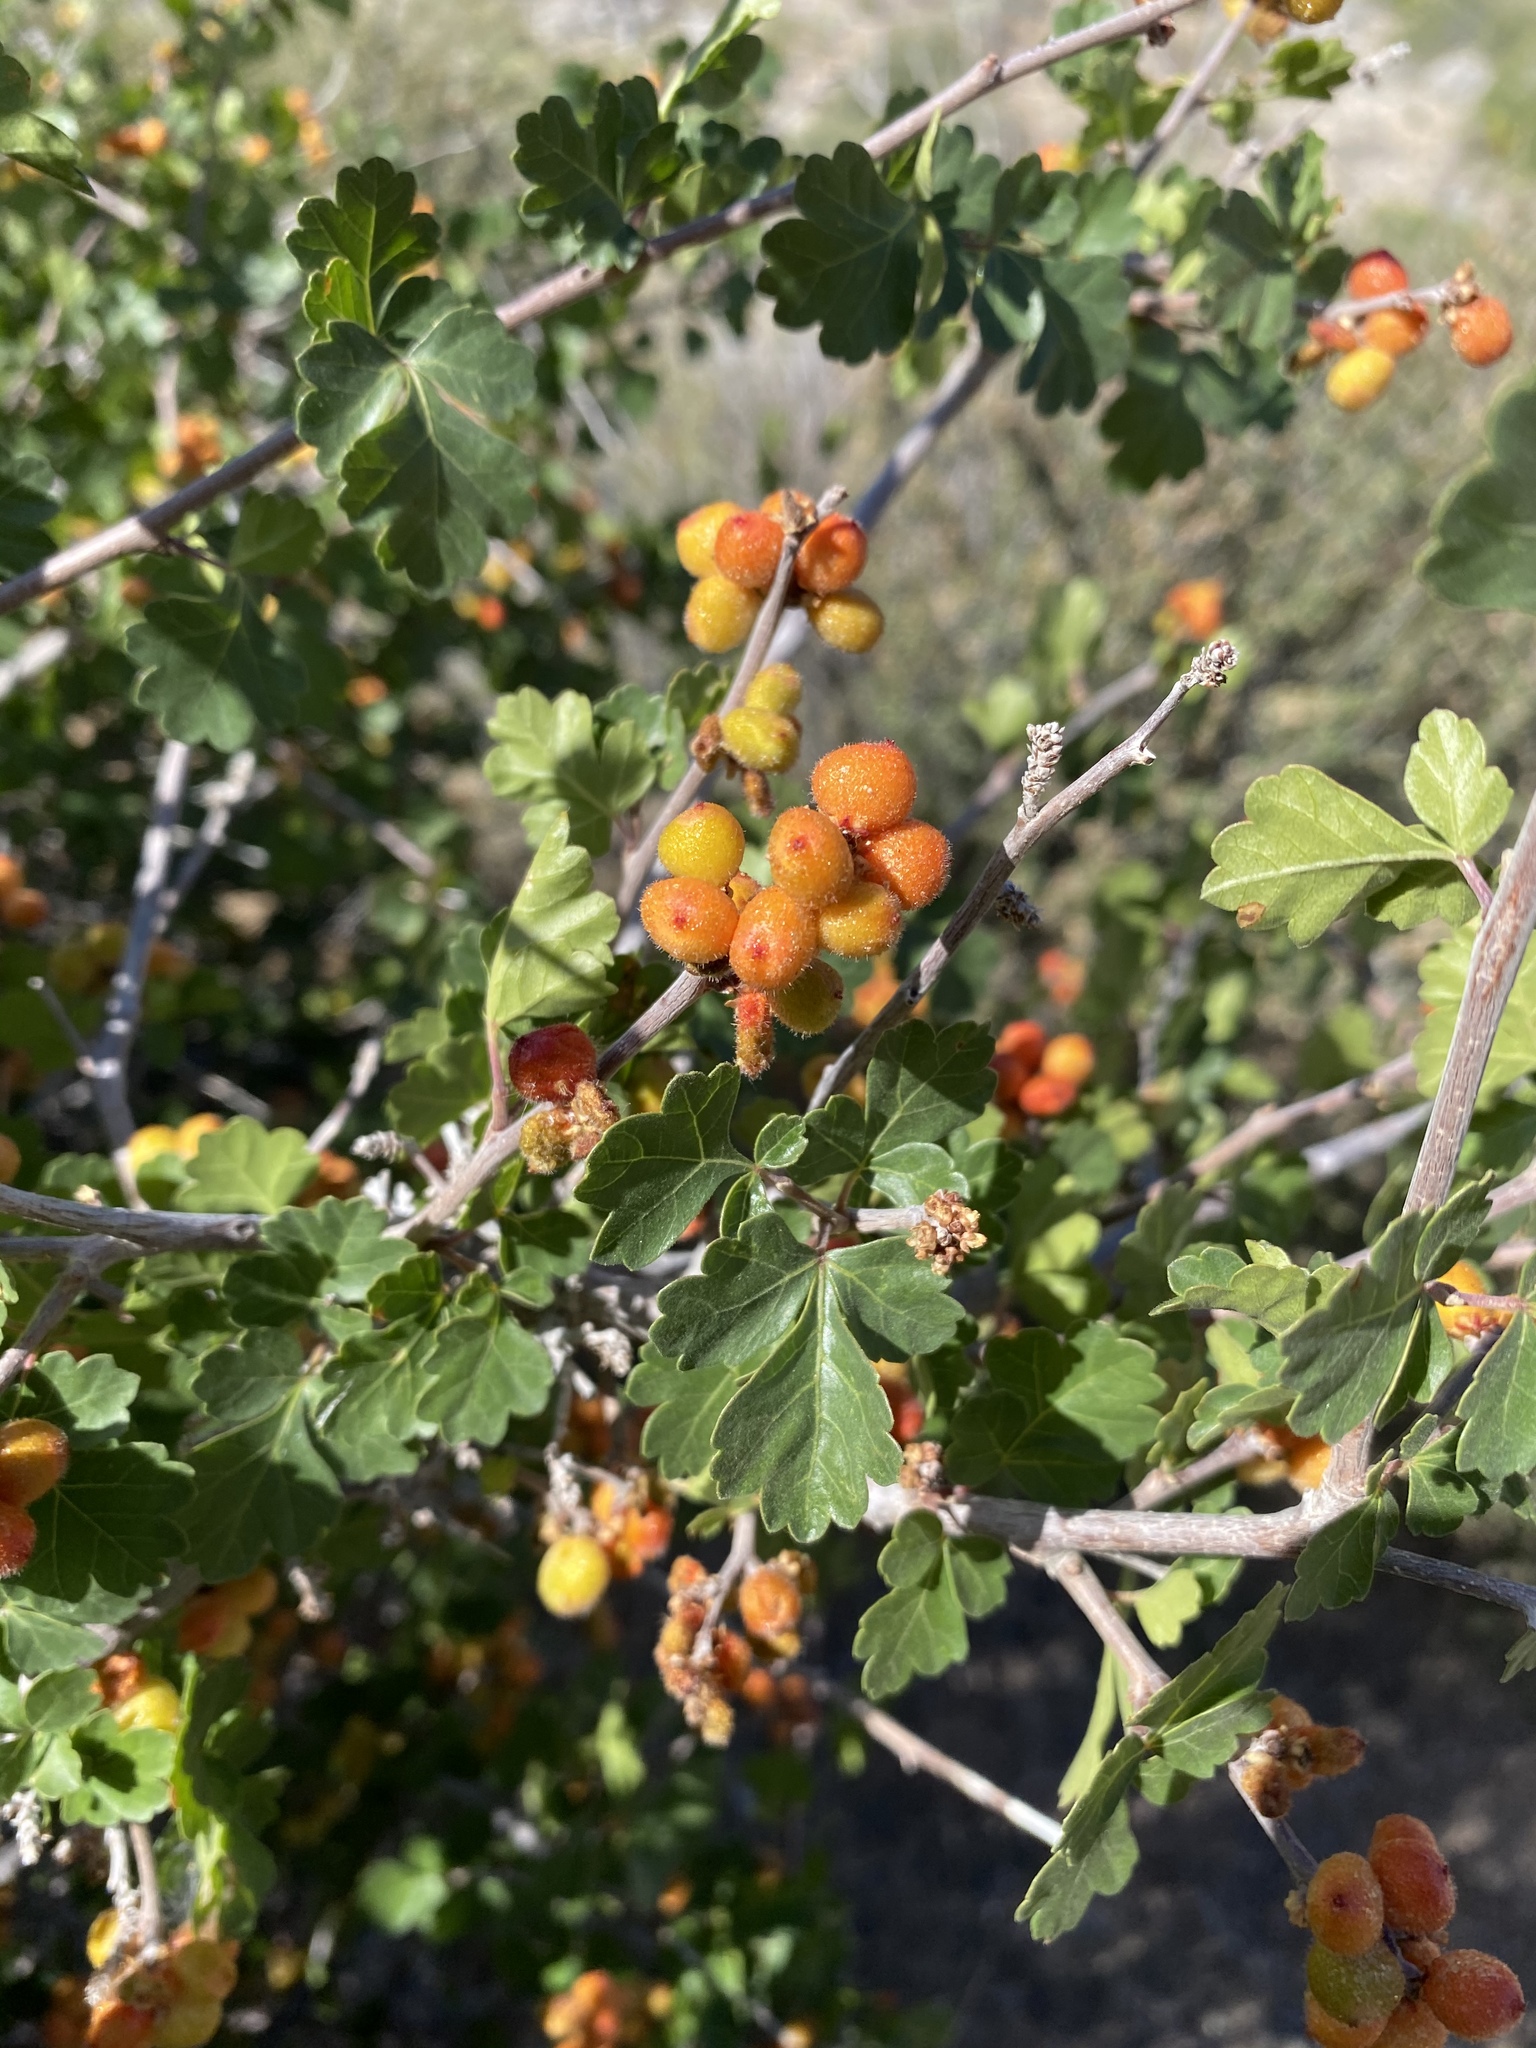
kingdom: Plantae
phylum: Tracheophyta
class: Magnoliopsida
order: Sapindales
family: Anacardiaceae
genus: Rhus
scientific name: Rhus trilobata
